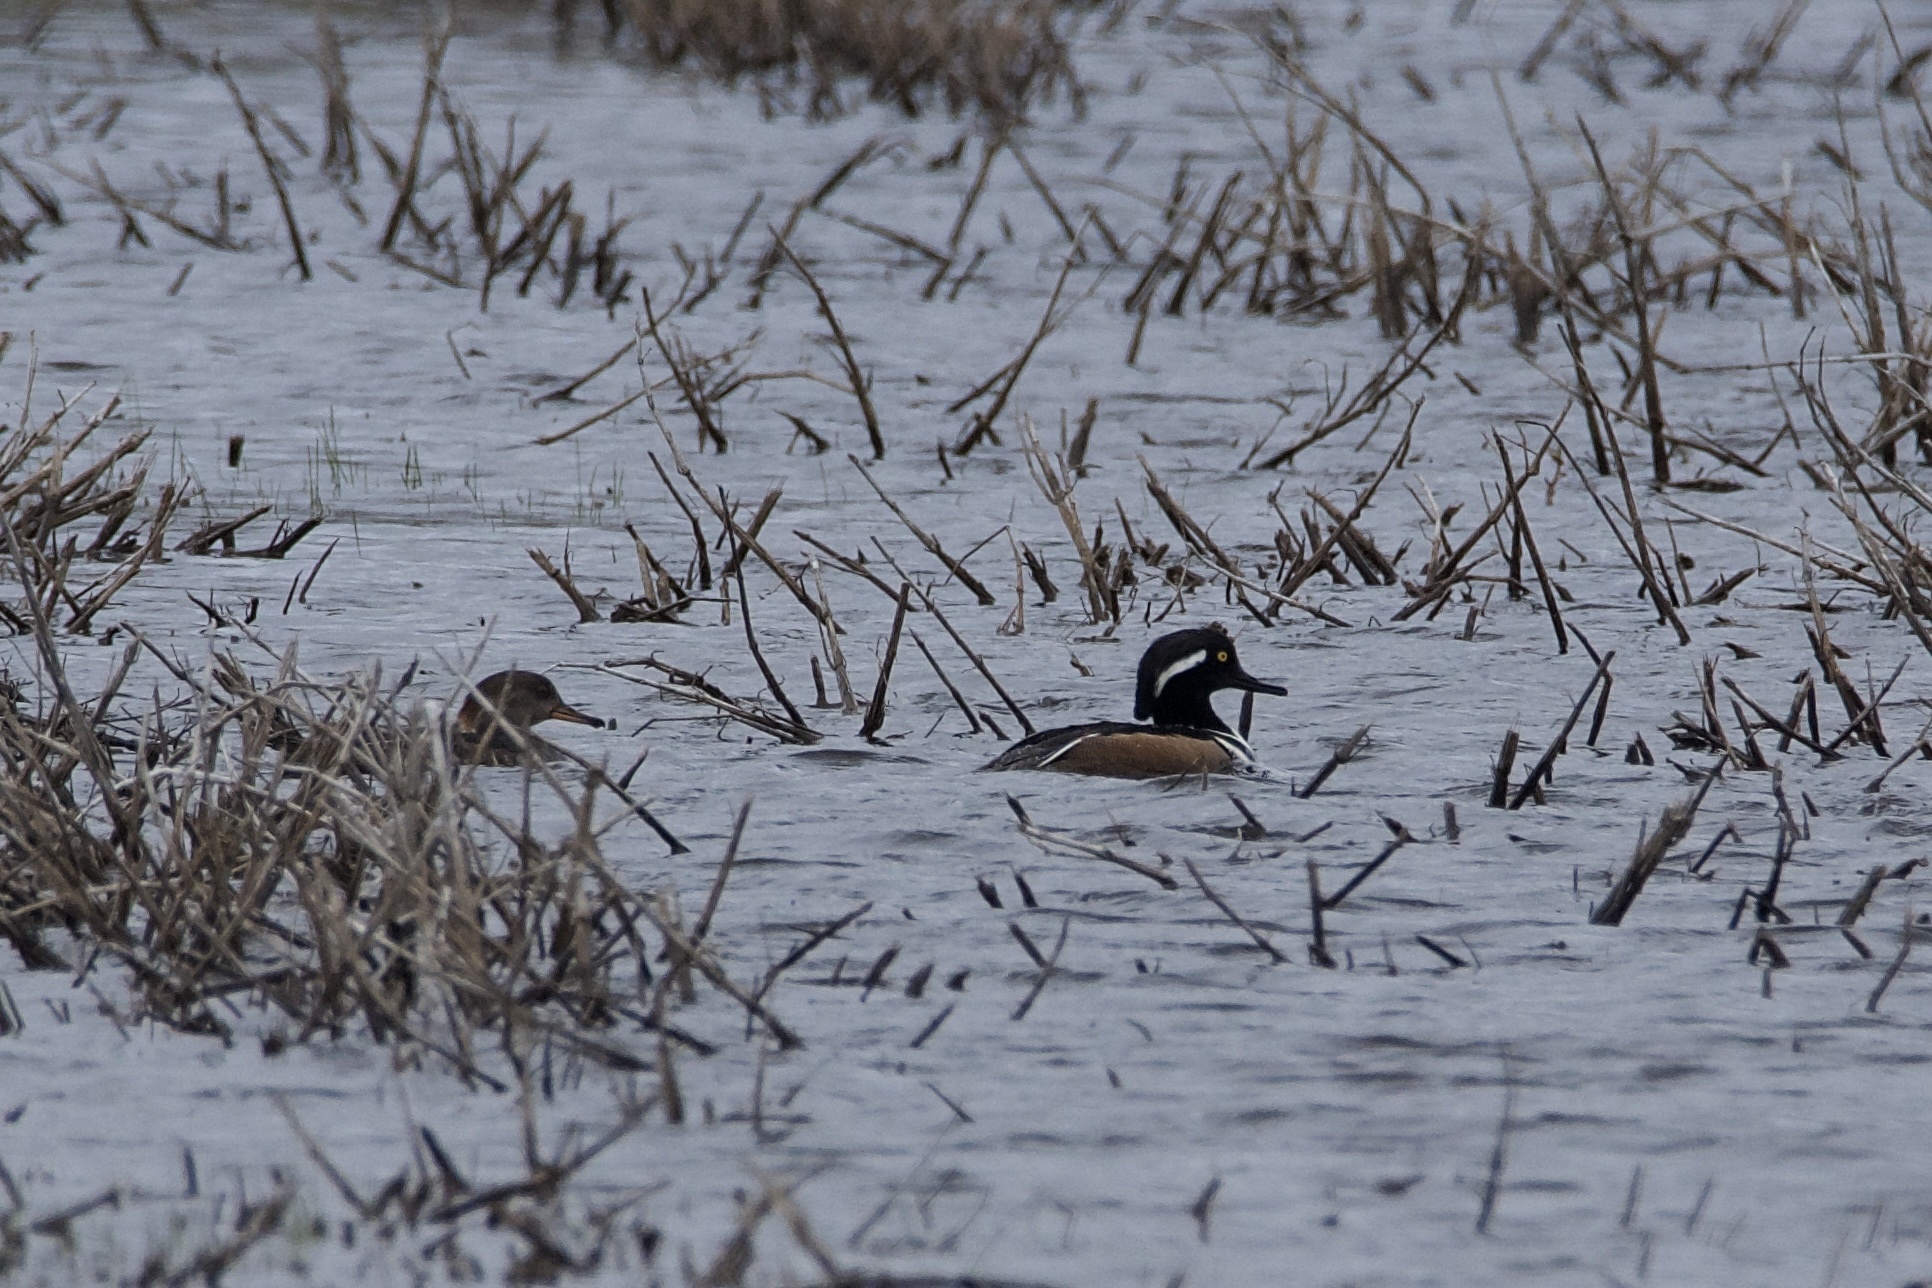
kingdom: Animalia
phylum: Chordata
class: Aves
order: Anseriformes
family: Anatidae
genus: Lophodytes
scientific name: Lophodytes cucullatus
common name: Hooded merganser
